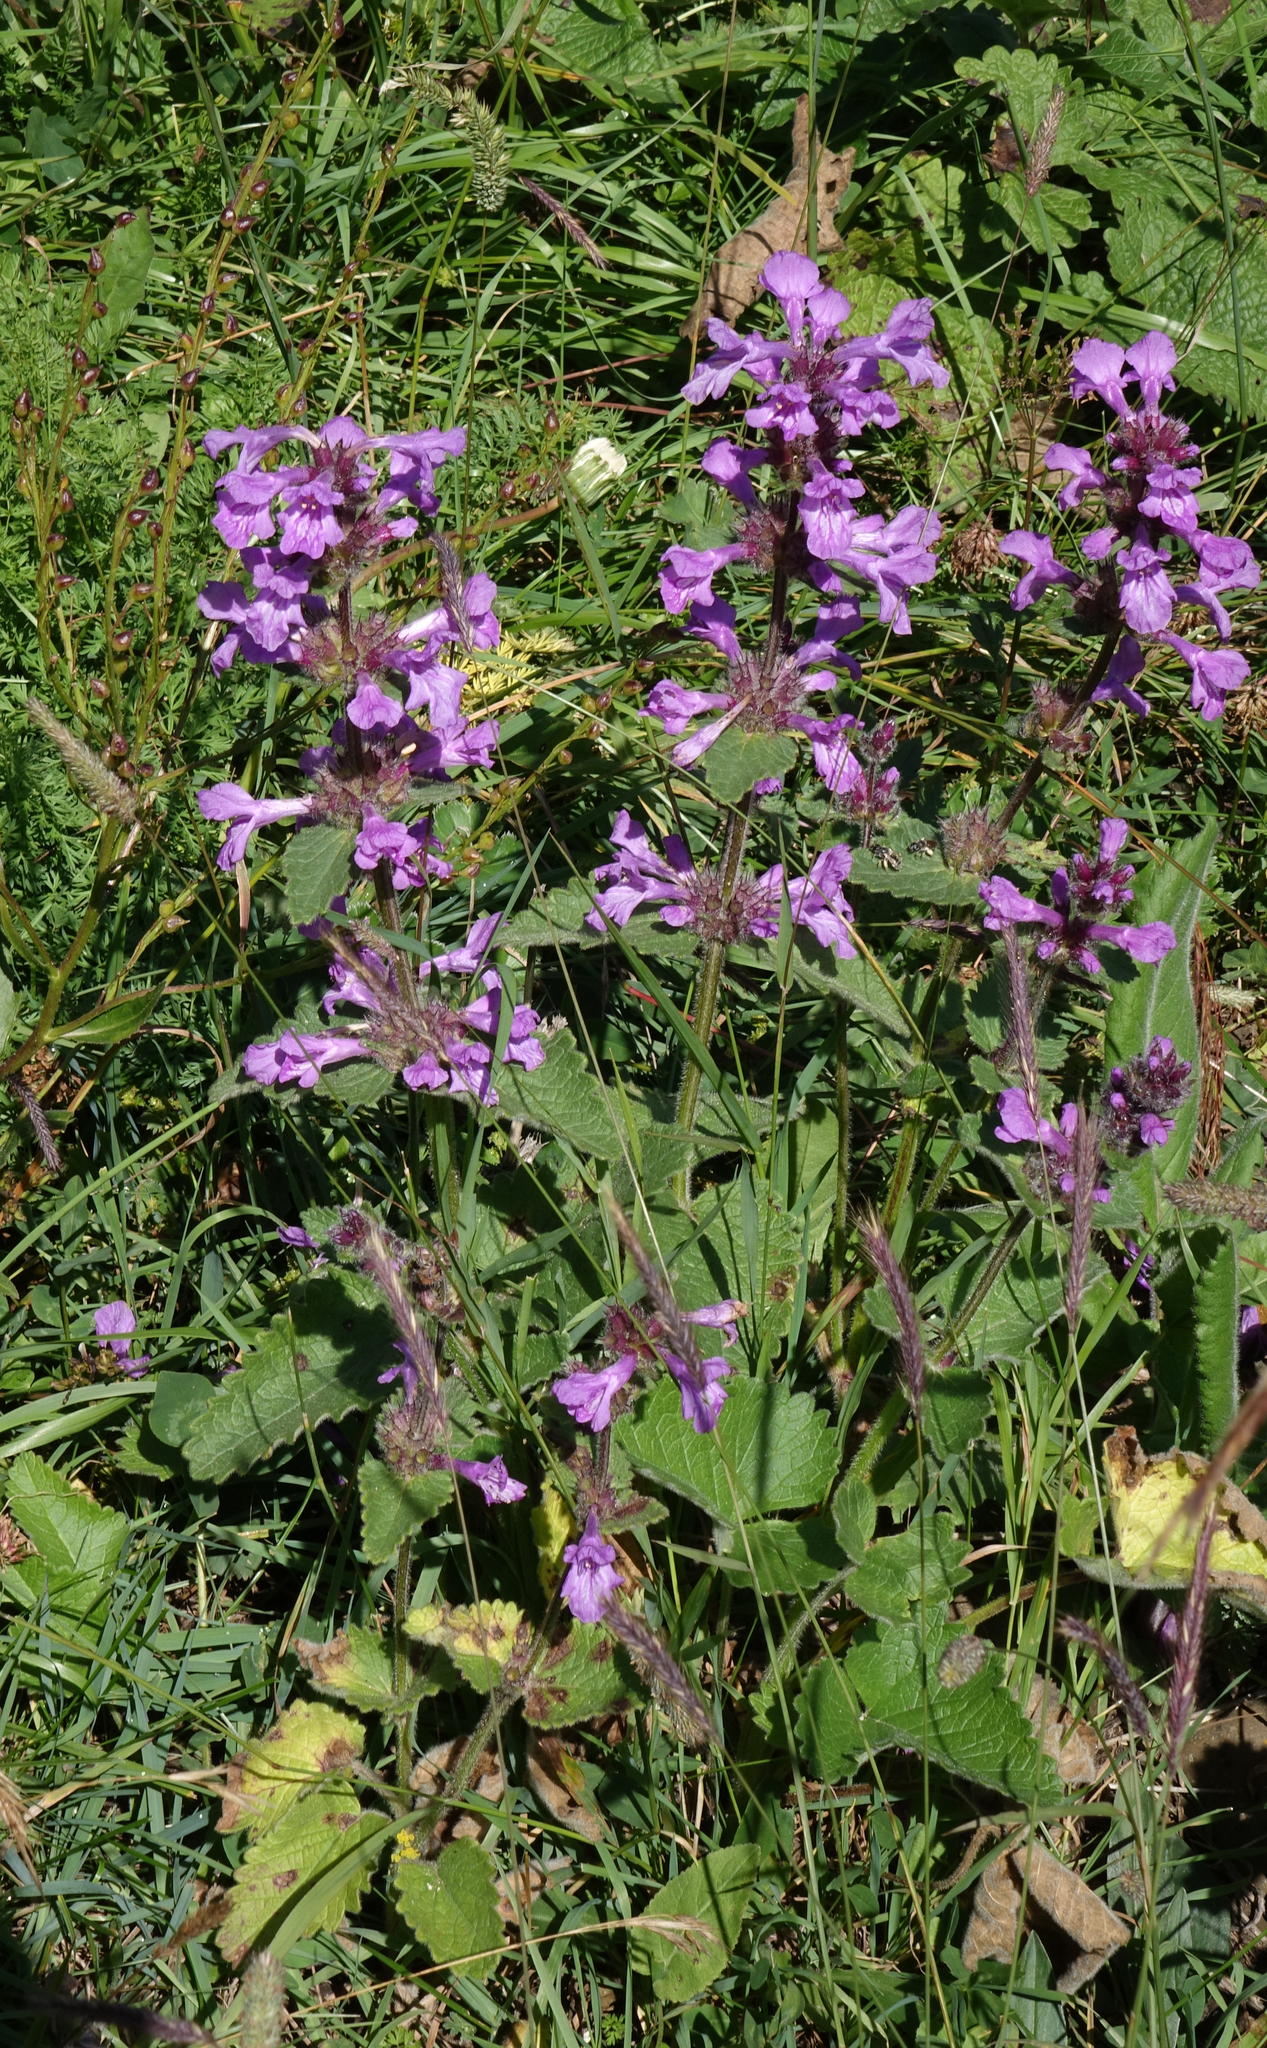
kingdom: Plantae
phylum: Tracheophyta
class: Magnoliopsida
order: Lamiales
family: Lamiaceae
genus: Betonica
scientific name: Betonica macrantha
